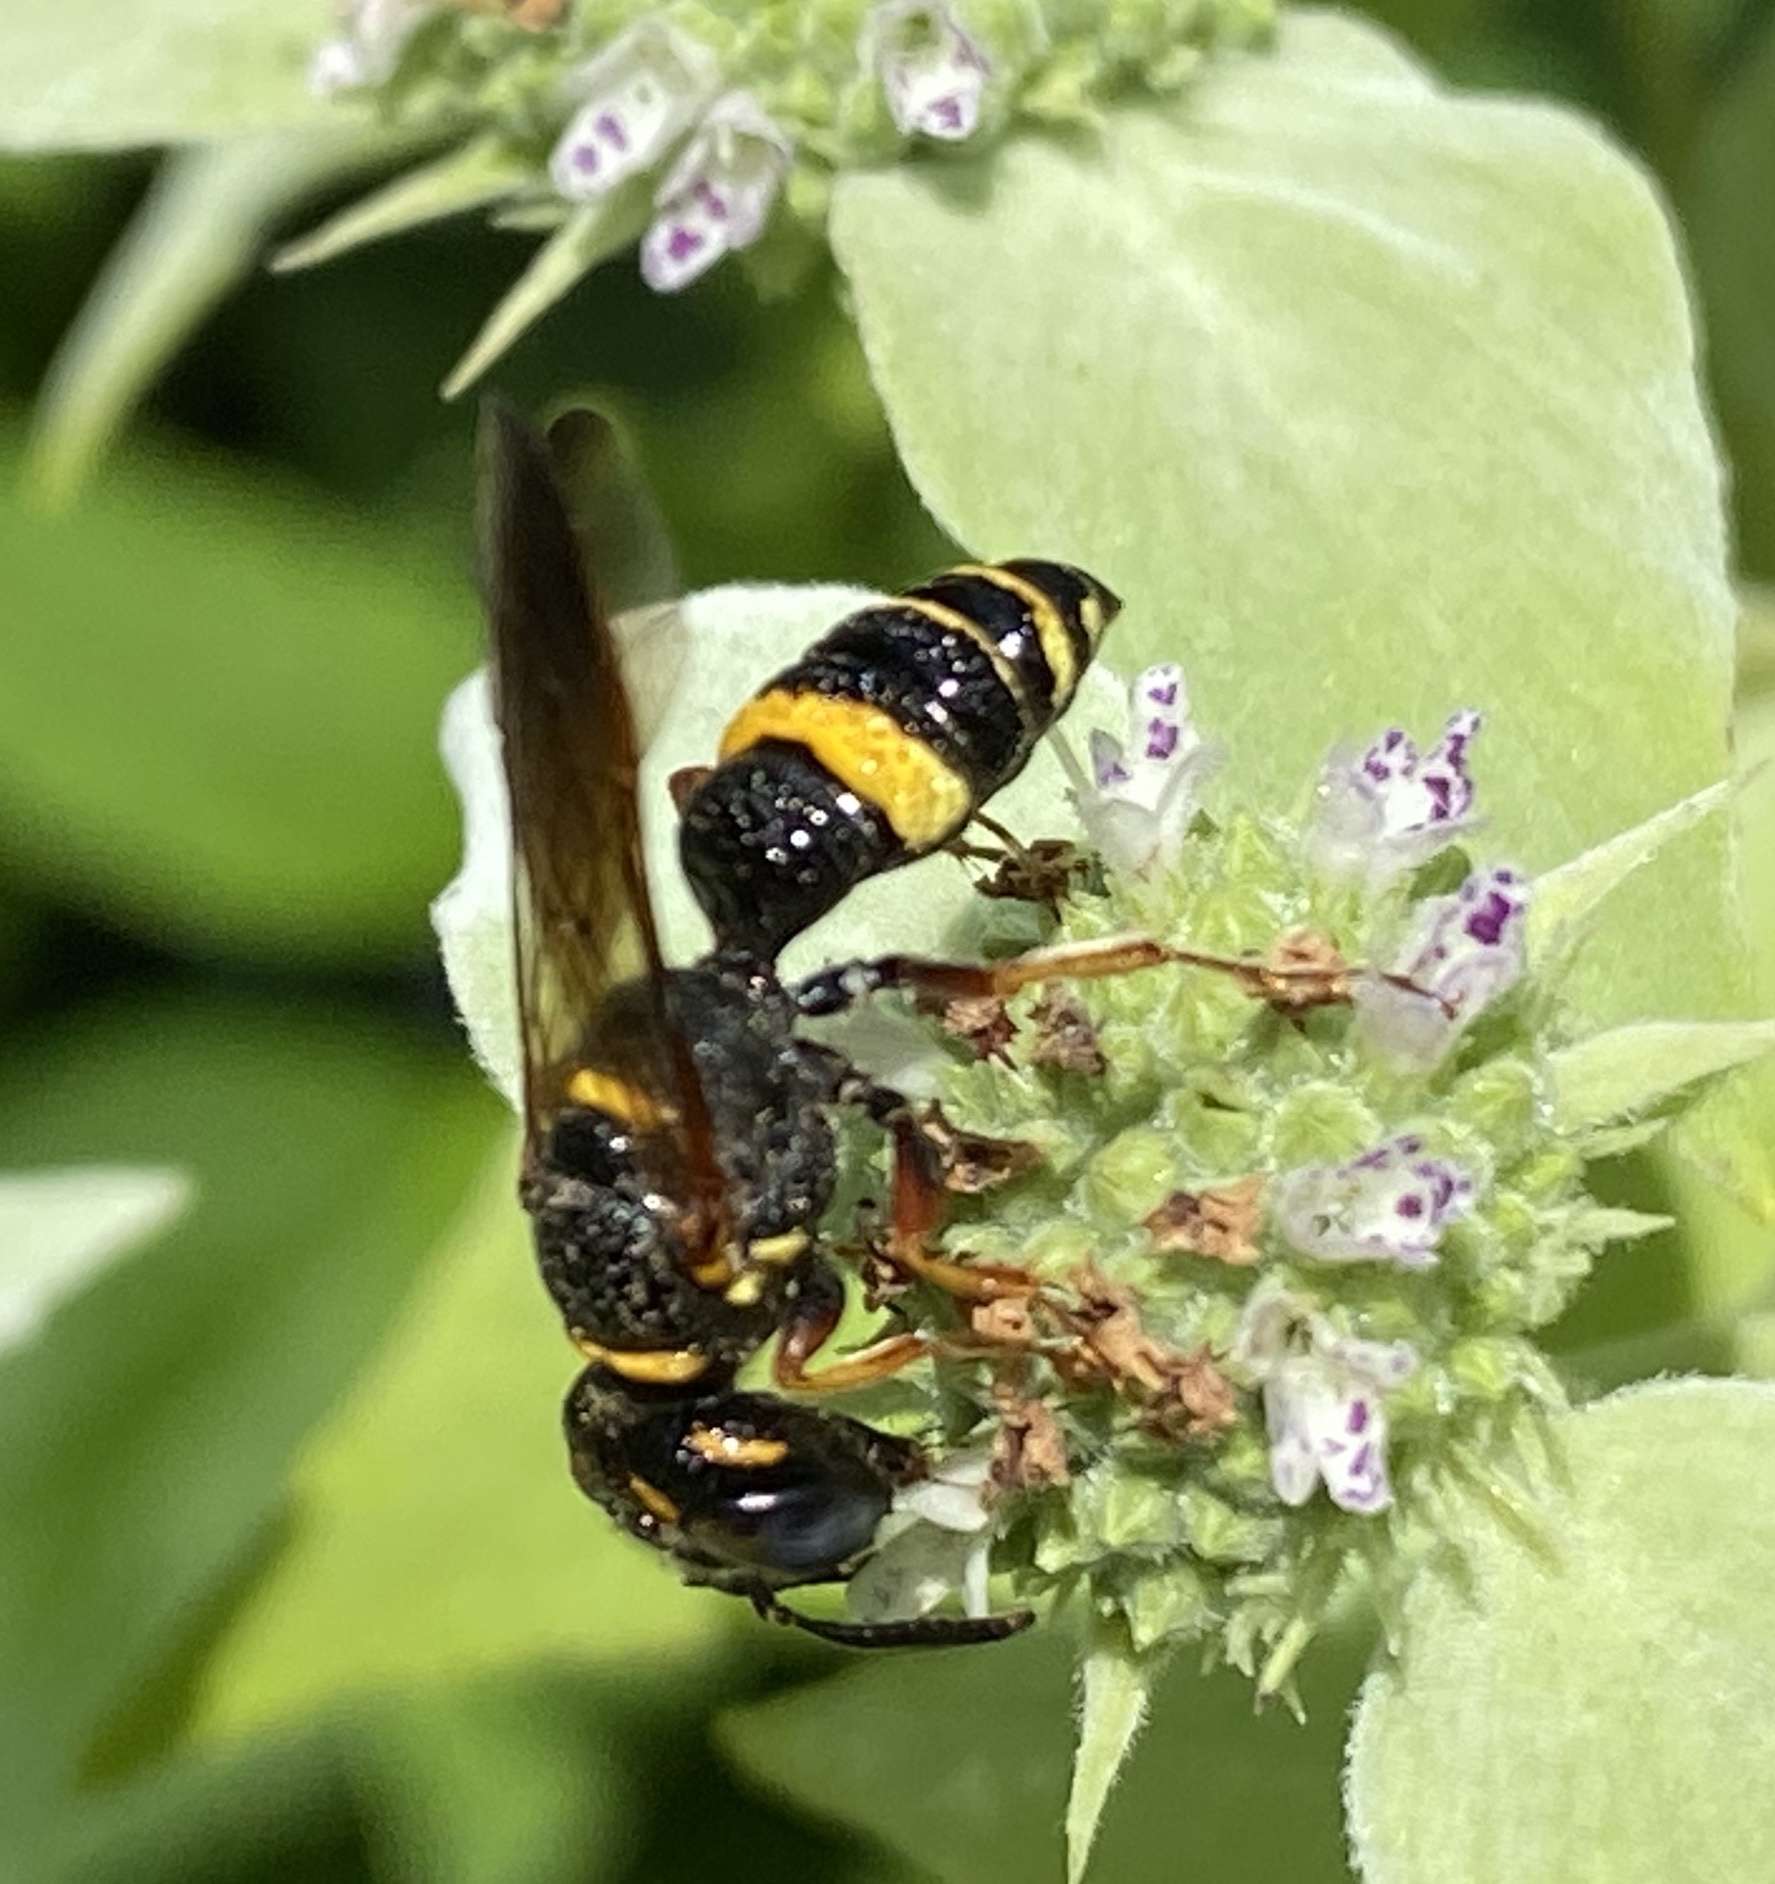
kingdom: Animalia
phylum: Arthropoda
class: Insecta
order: Hymenoptera
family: Crabronidae
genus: Philanthus
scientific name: Philanthus gibbosus
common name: Humped beewolf
